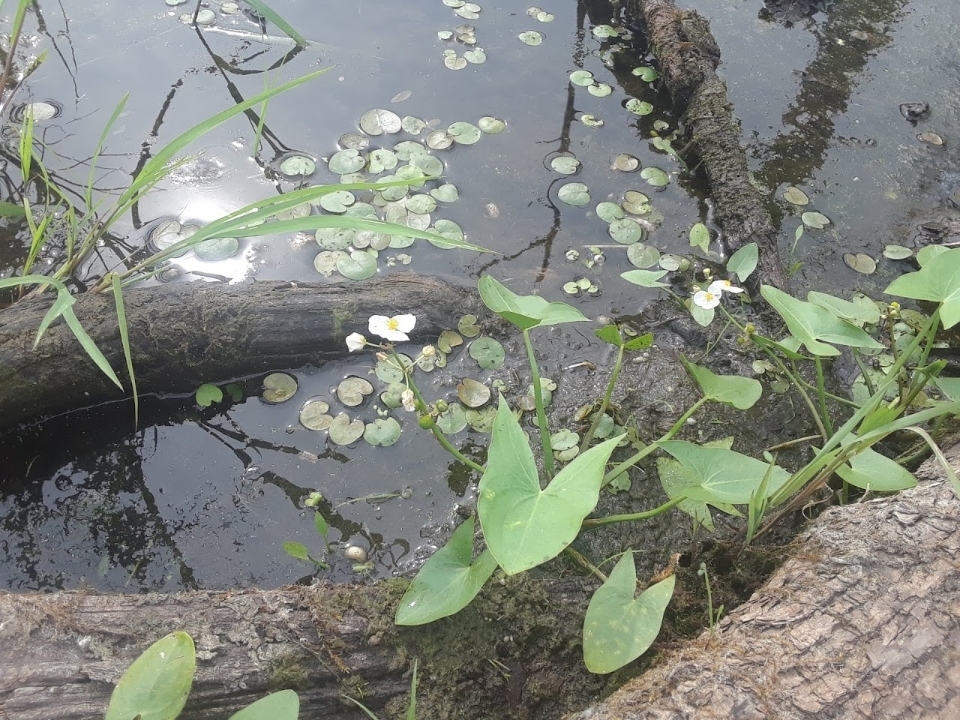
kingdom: Plantae
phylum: Tracheophyta
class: Liliopsida
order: Alismatales
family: Alismataceae
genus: Sagittaria
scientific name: Sagittaria latifolia
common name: Duck-potato
